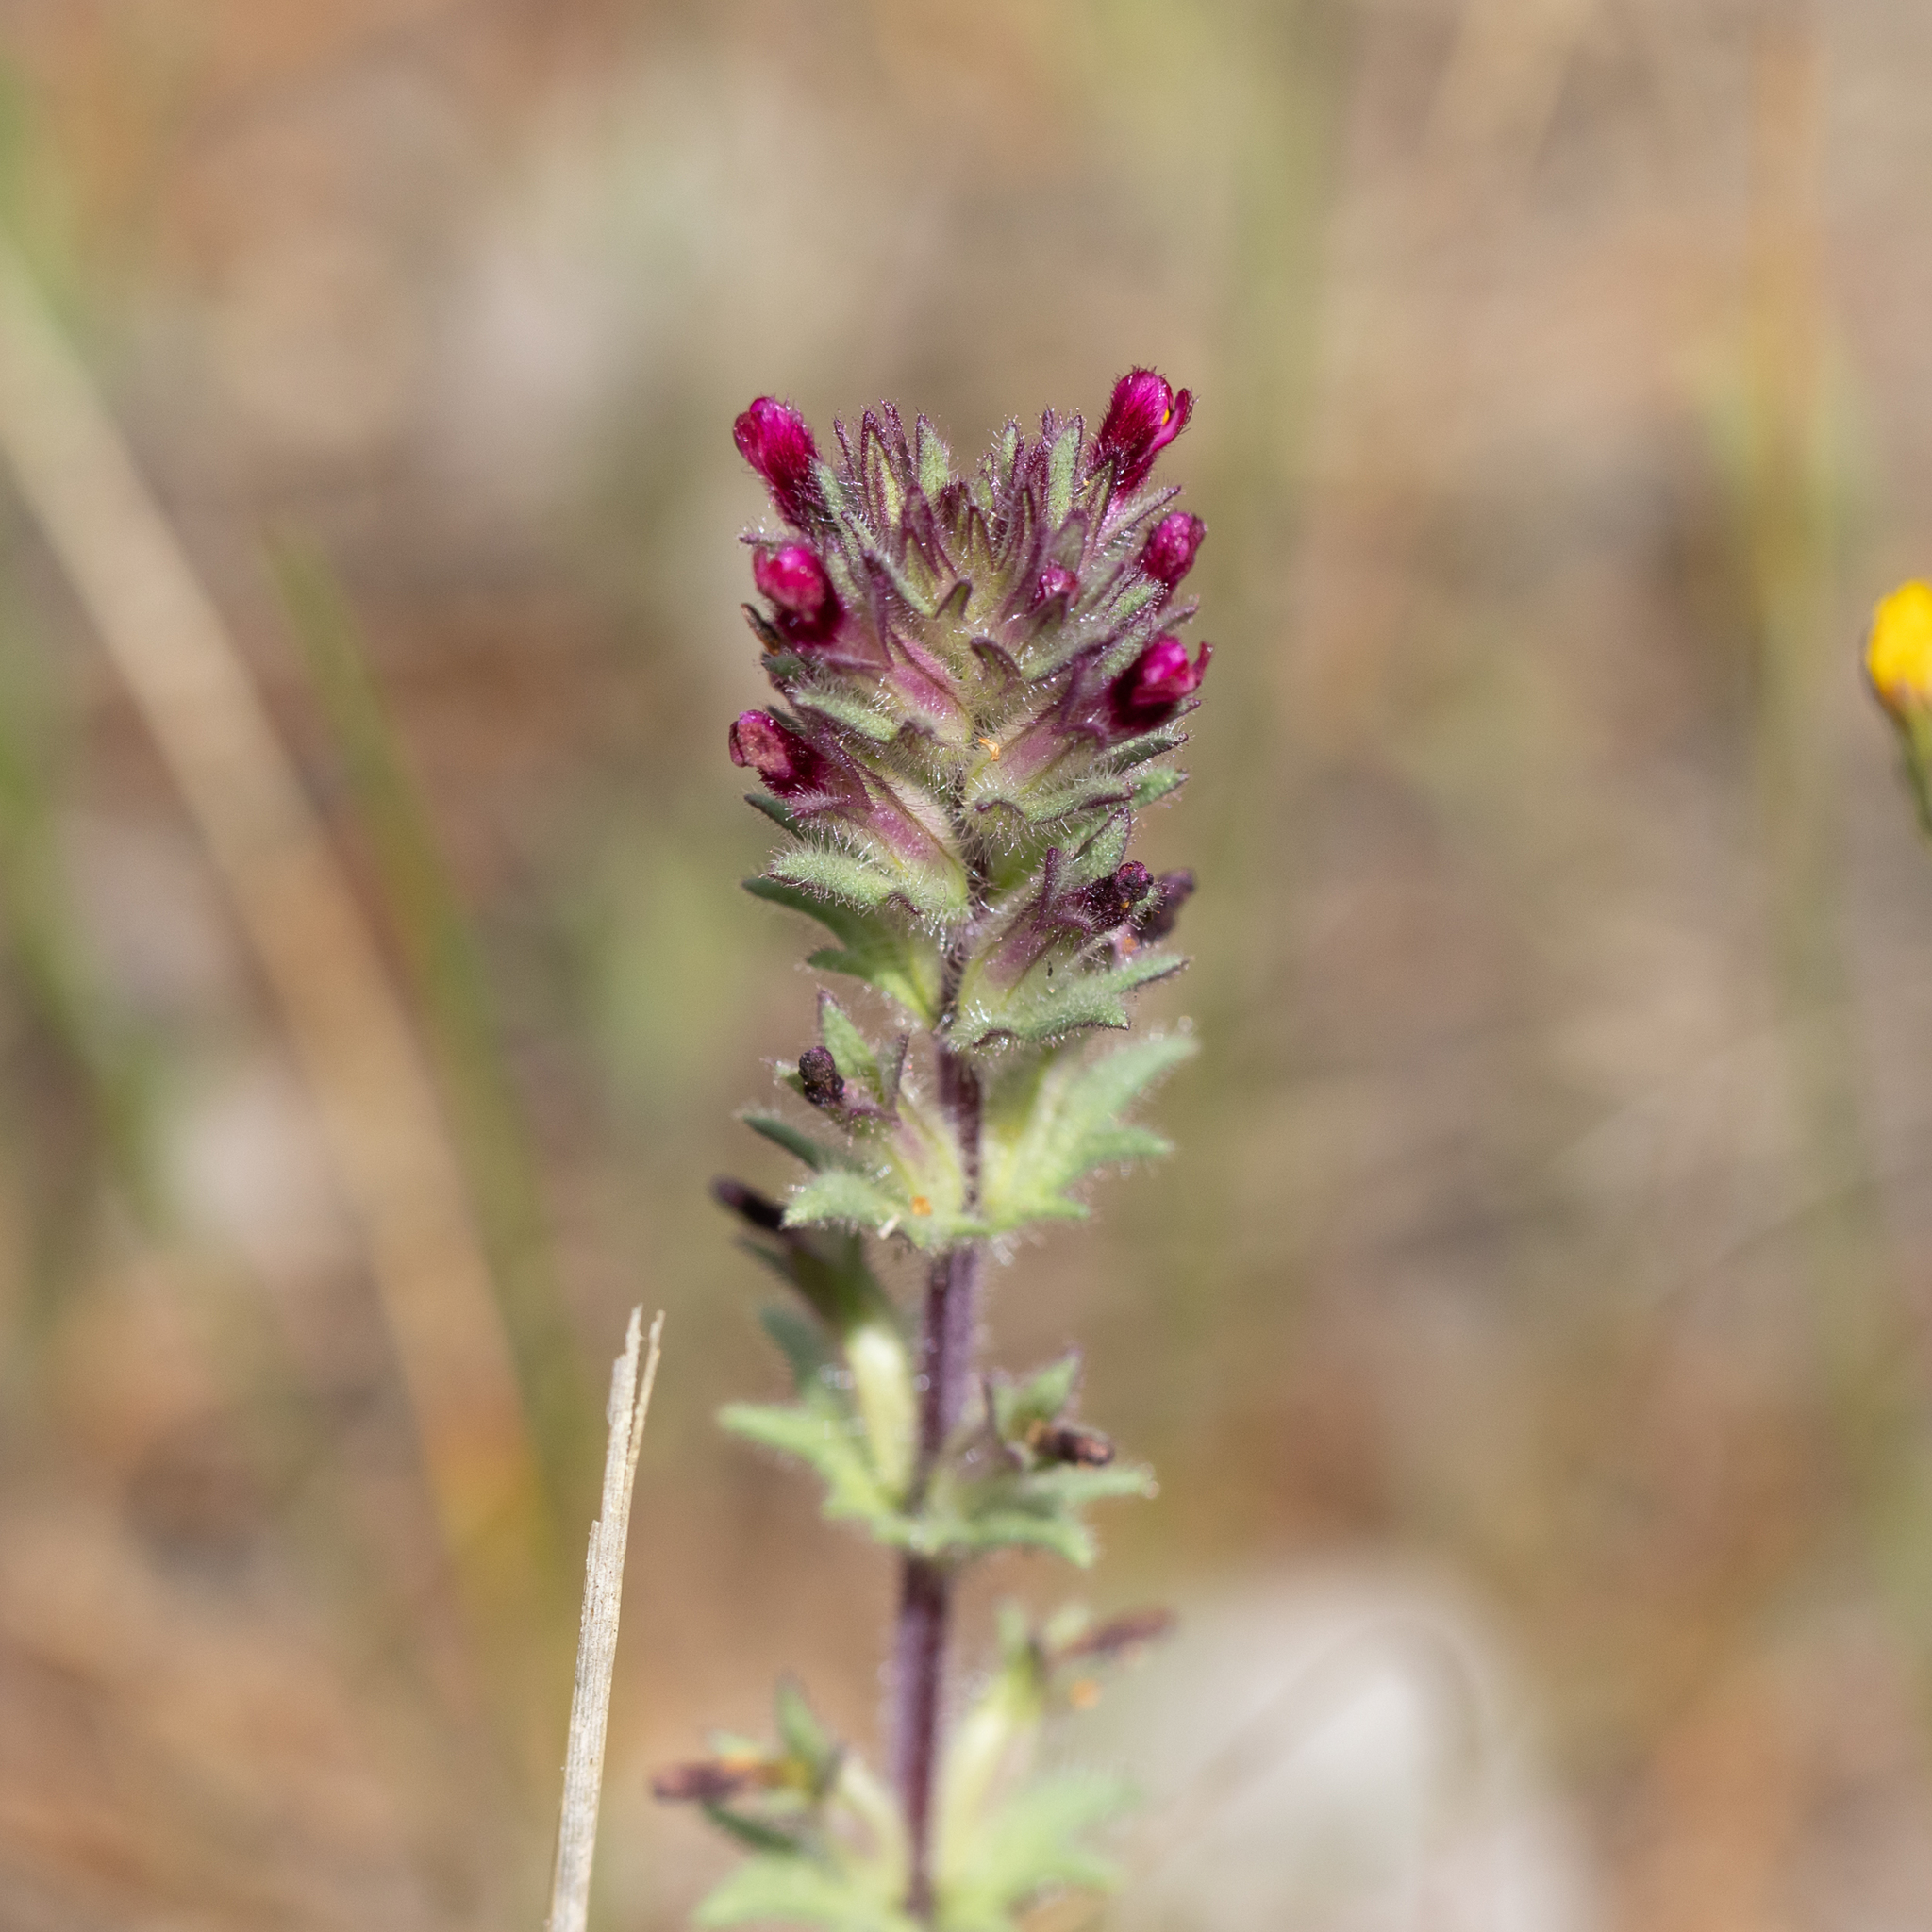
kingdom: Plantae
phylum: Tracheophyta
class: Magnoliopsida
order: Lamiales
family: Orobanchaceae
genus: Parentucellia
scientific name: Parentucellia latifolia
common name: Broadleaf glandweed
